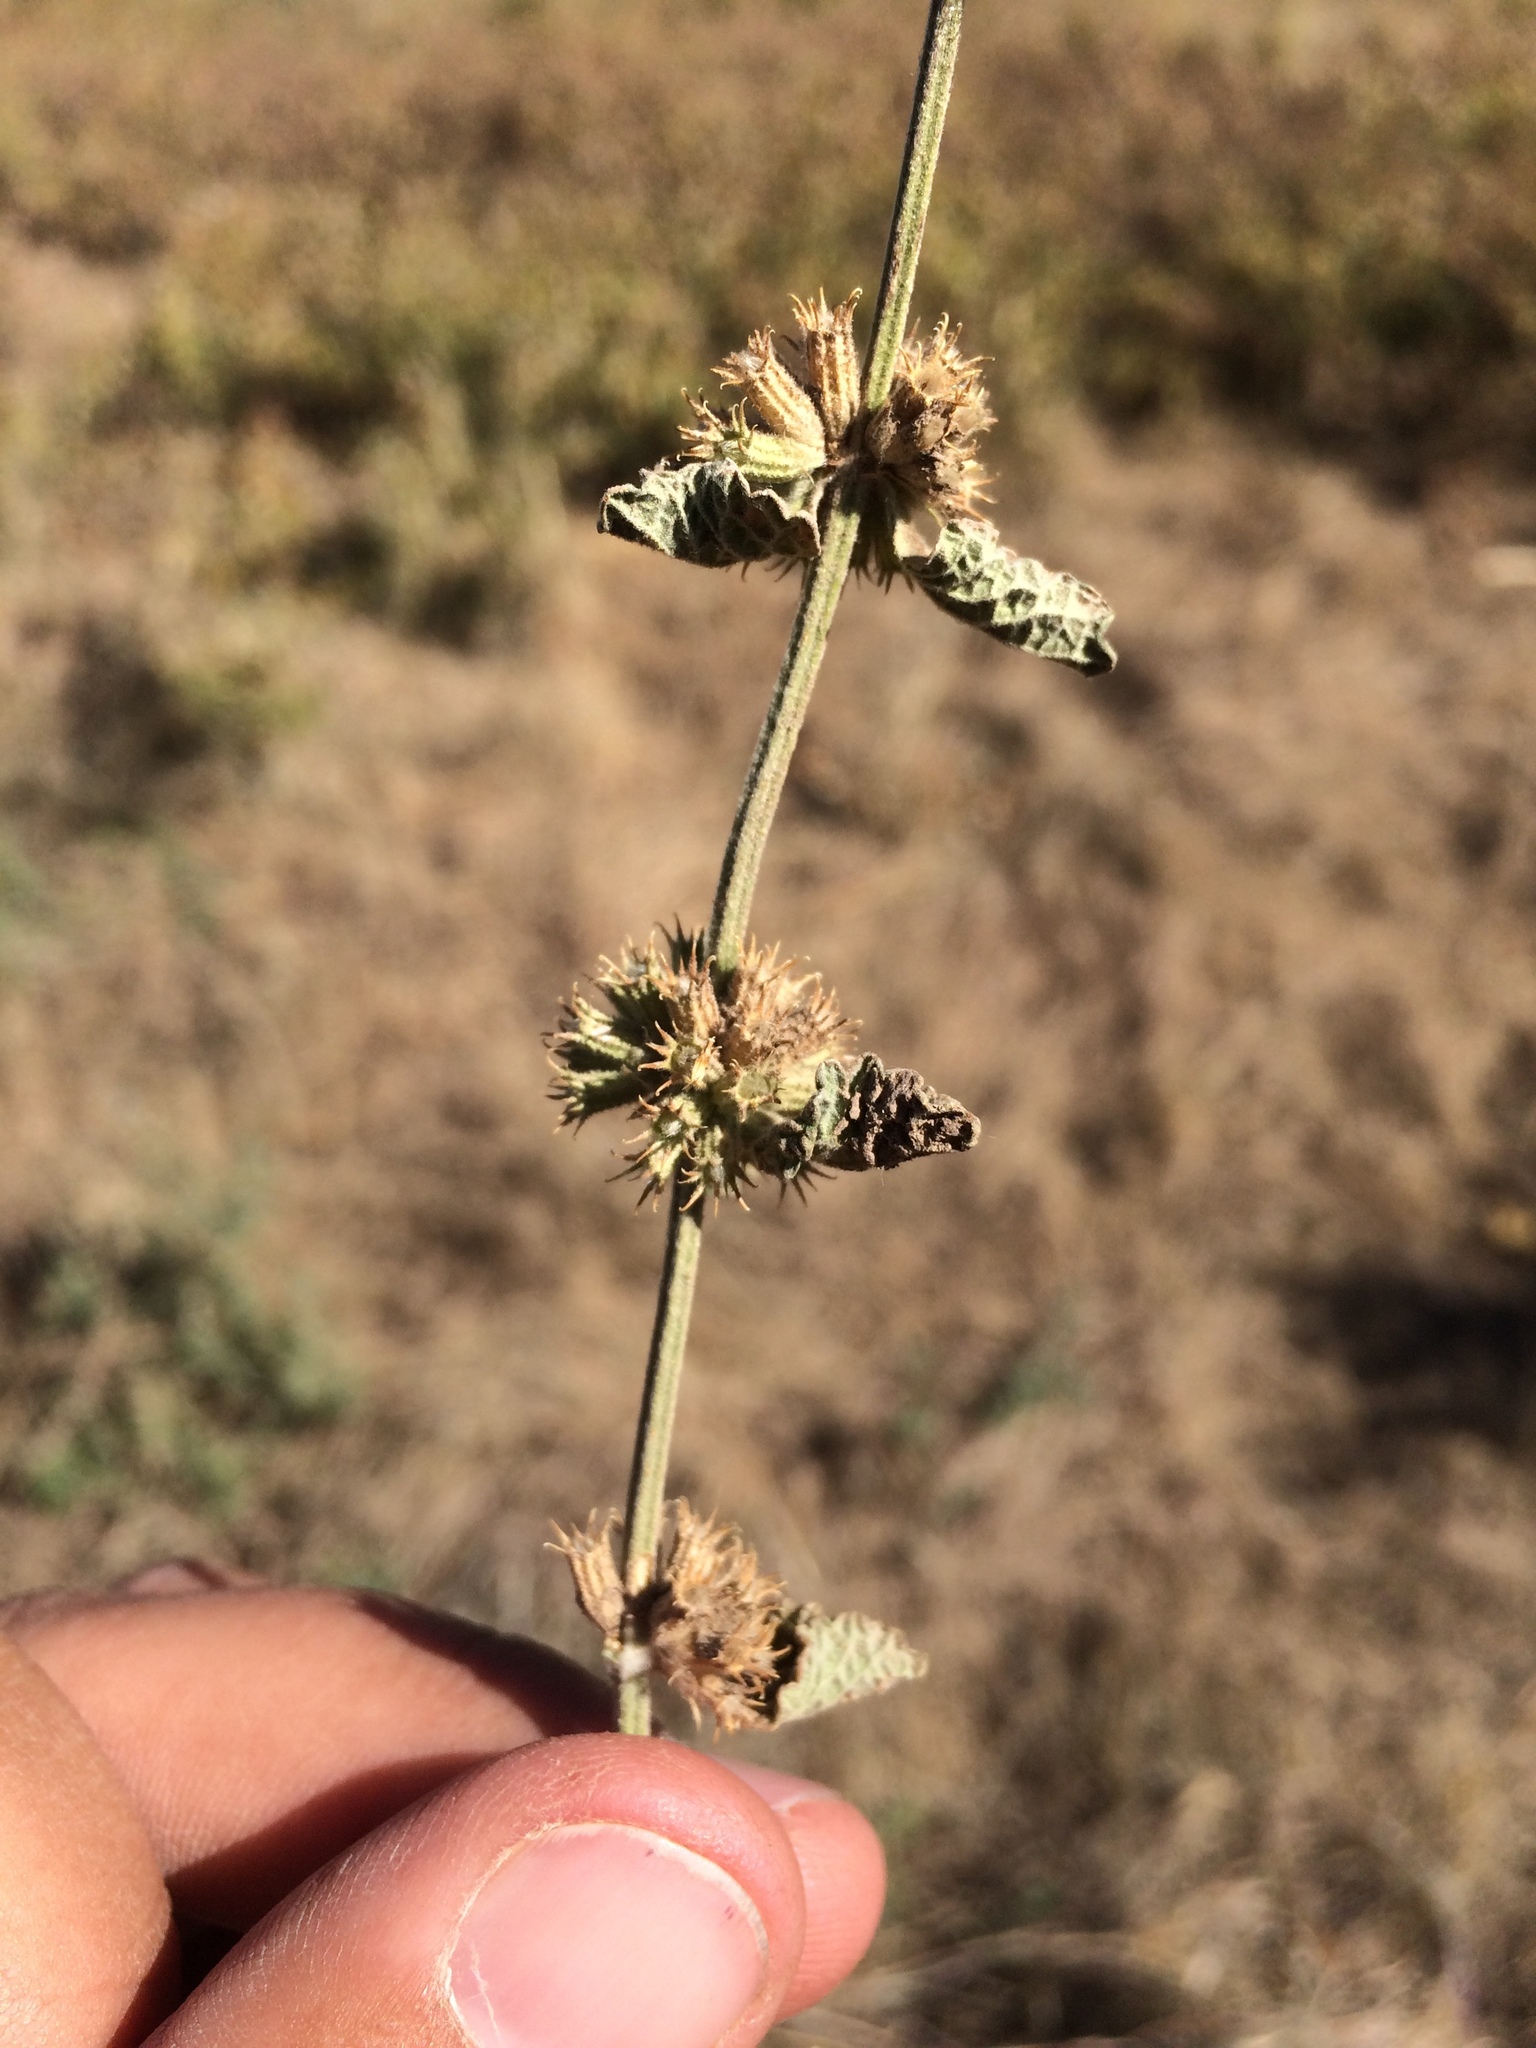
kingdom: Plantae
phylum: Tracheophyta
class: Magnoliopsida
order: Lamiales
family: Lamiaceae
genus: Marrubium
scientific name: Marrubium vulgare
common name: Horehound
